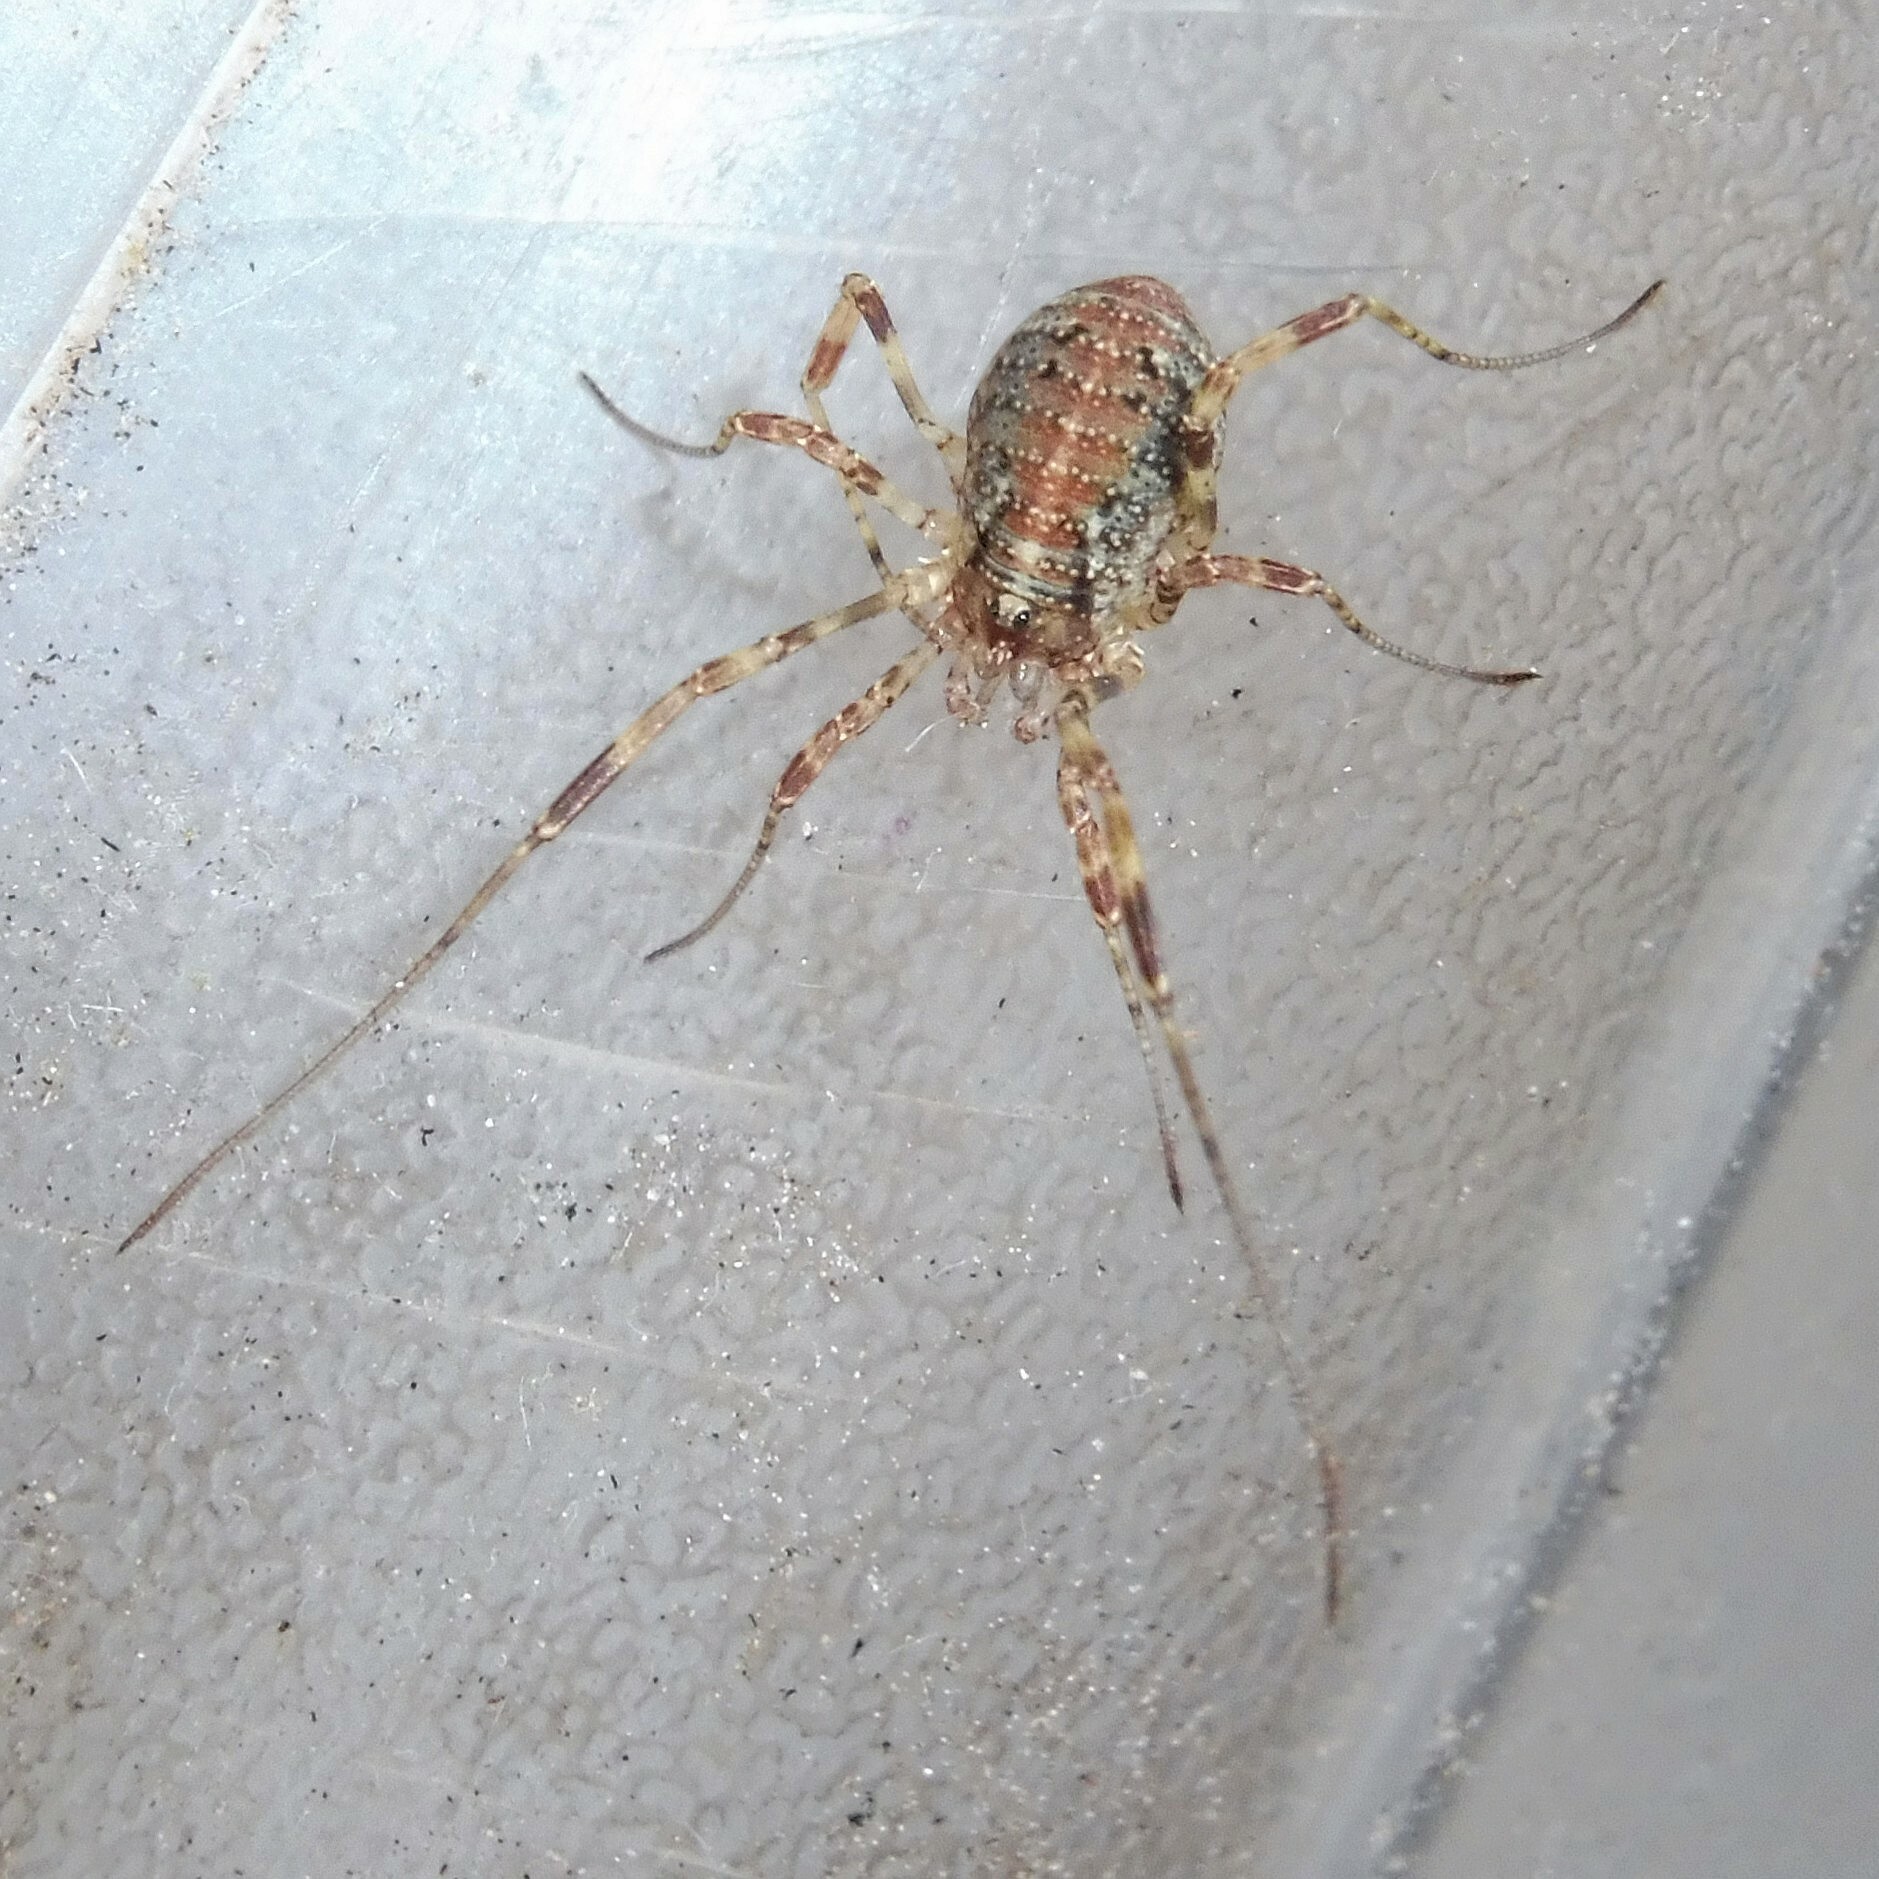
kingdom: Animalia
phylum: Arthropoda
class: Arachnida
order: Opiliones
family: Phalangiidae
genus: Paroligolophus
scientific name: Paroligolophus agrestis
